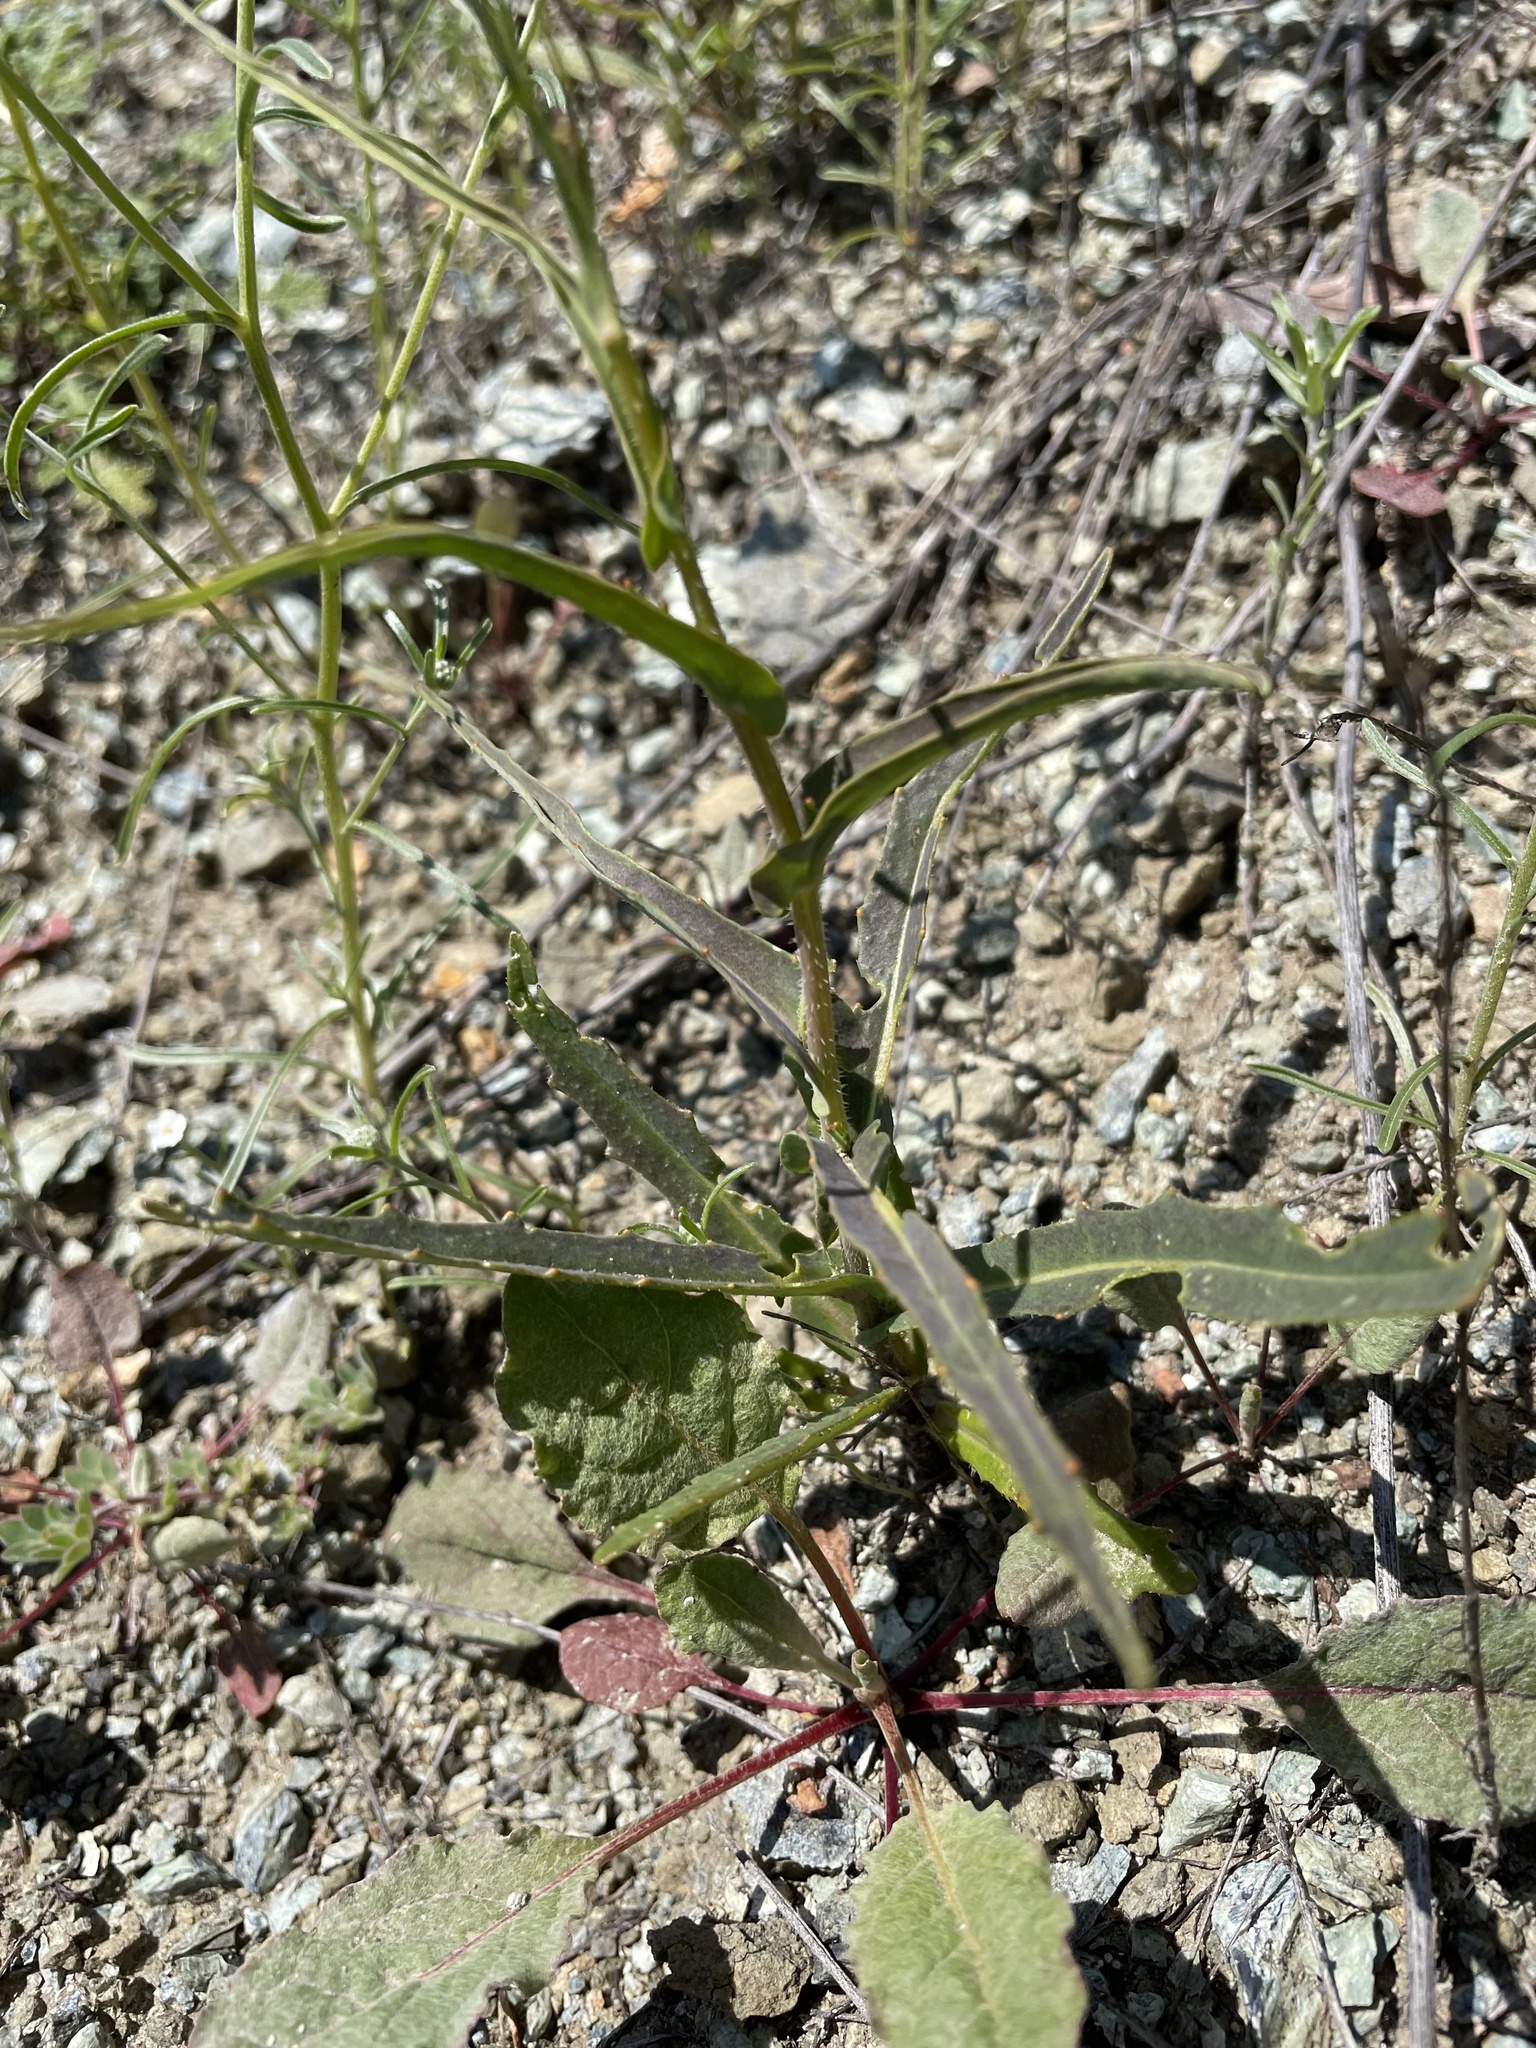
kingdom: Plantae
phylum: Tracheophyta
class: Magnoliopsida
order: Brassicales
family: Brassicaceae
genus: Streptanthus
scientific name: Streptanthus glandulosus
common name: Jewel-flower
